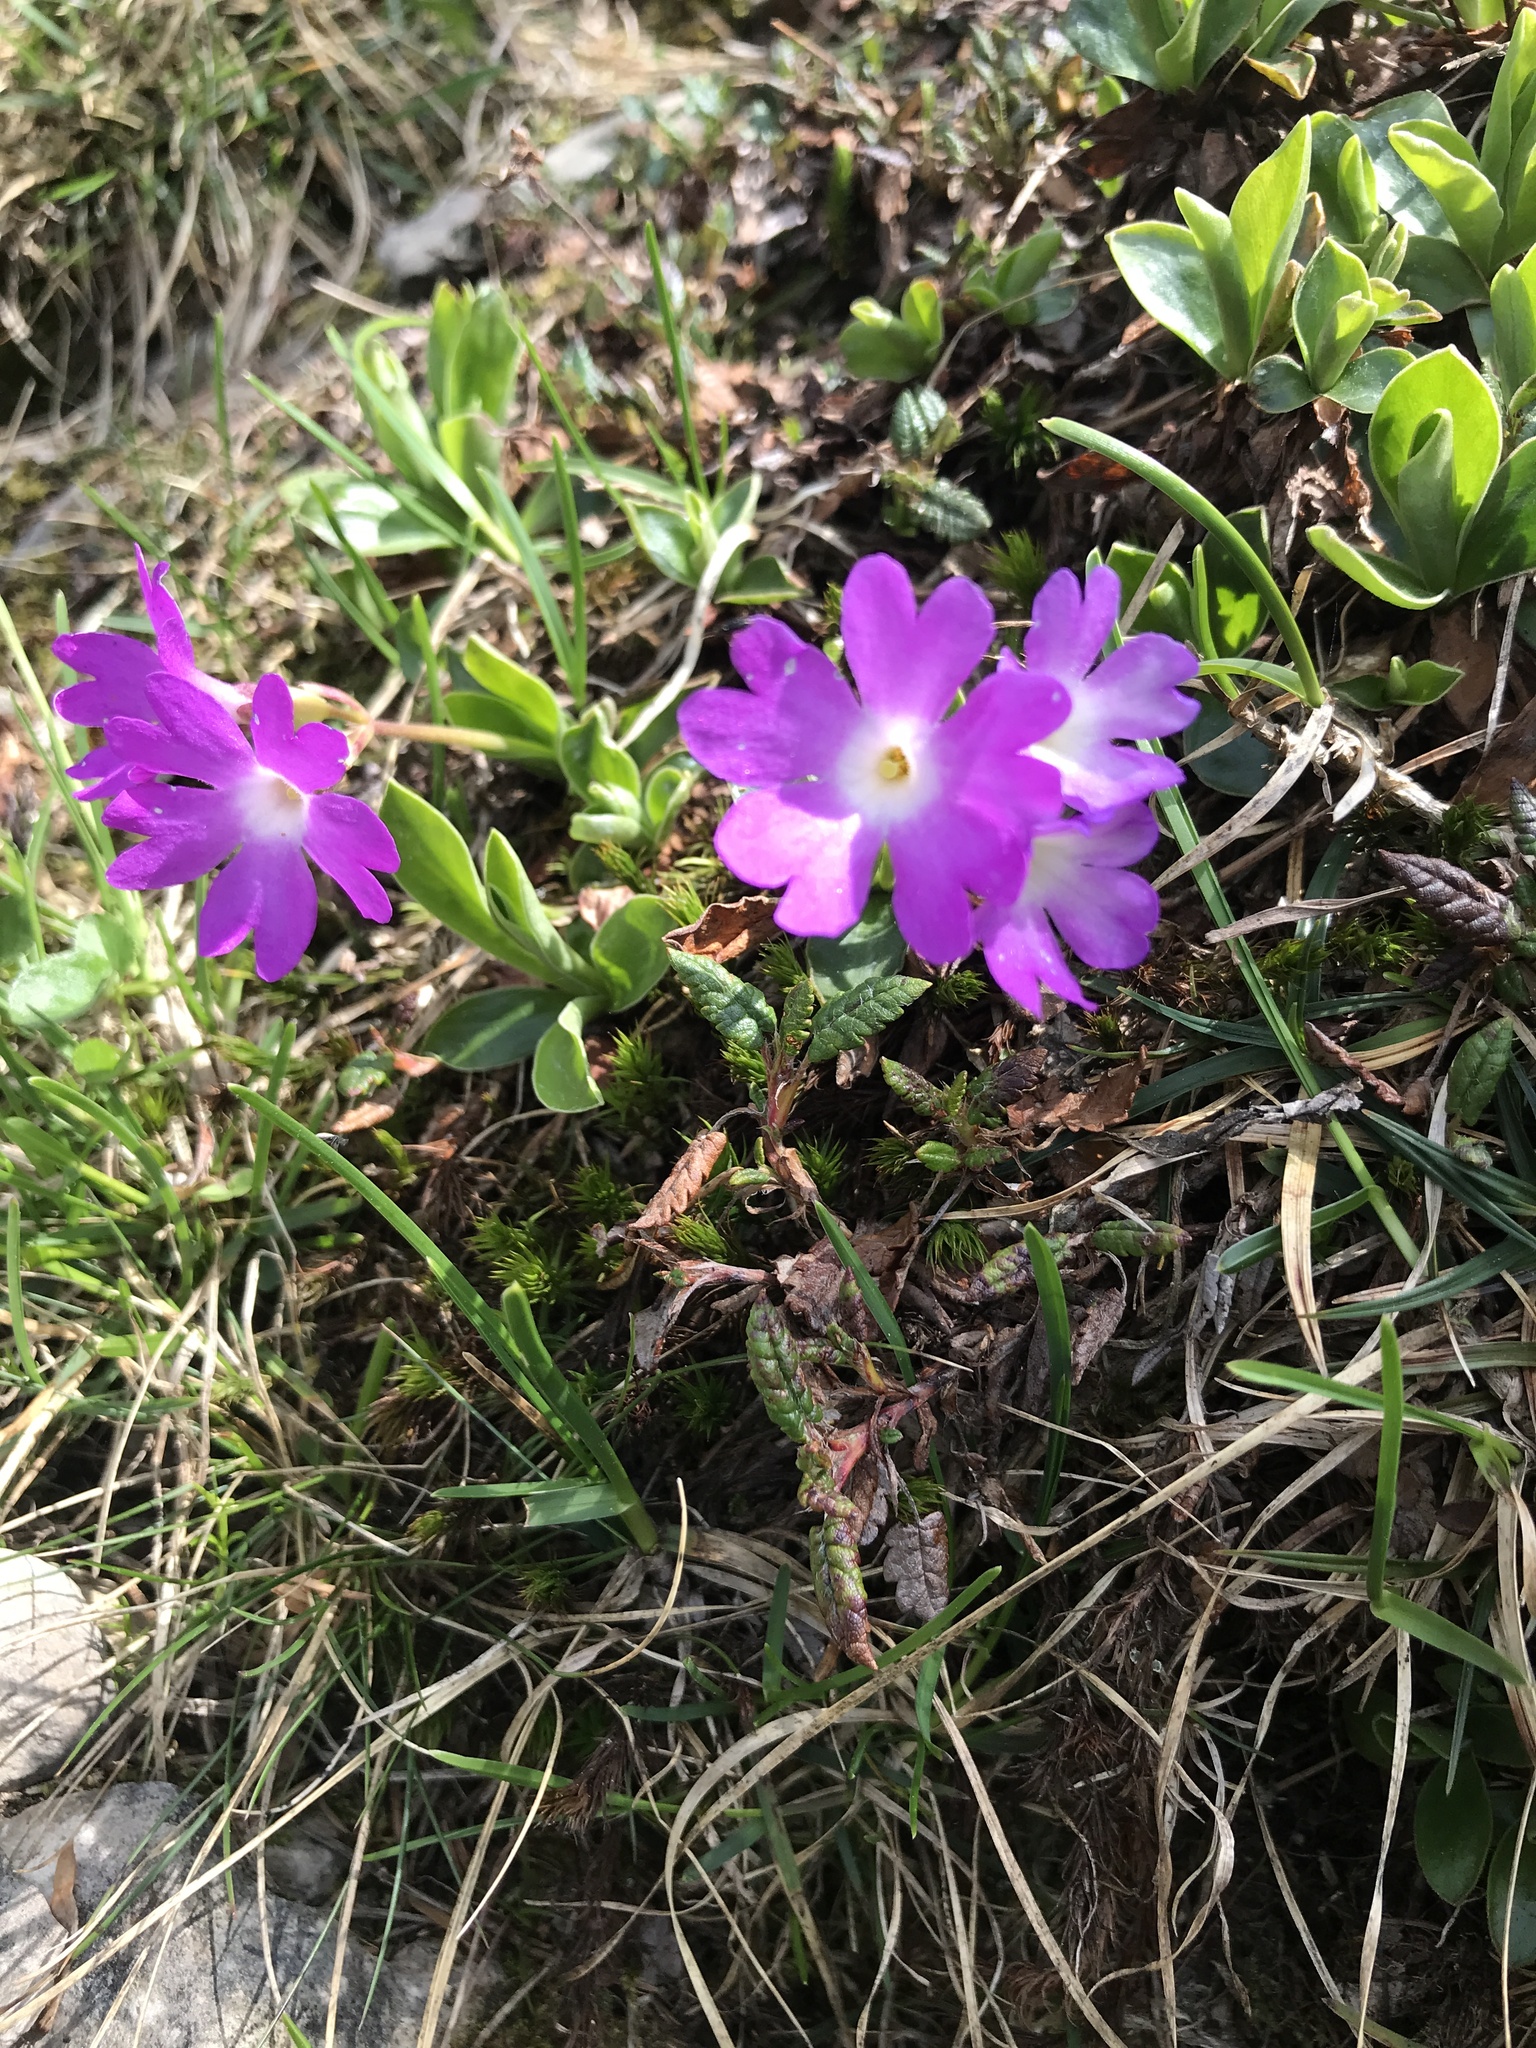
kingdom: Plantae
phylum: Tracheophyta
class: Magnoliopsida
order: Ericales
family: Primulaceae
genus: Primula
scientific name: Primula clusiana
